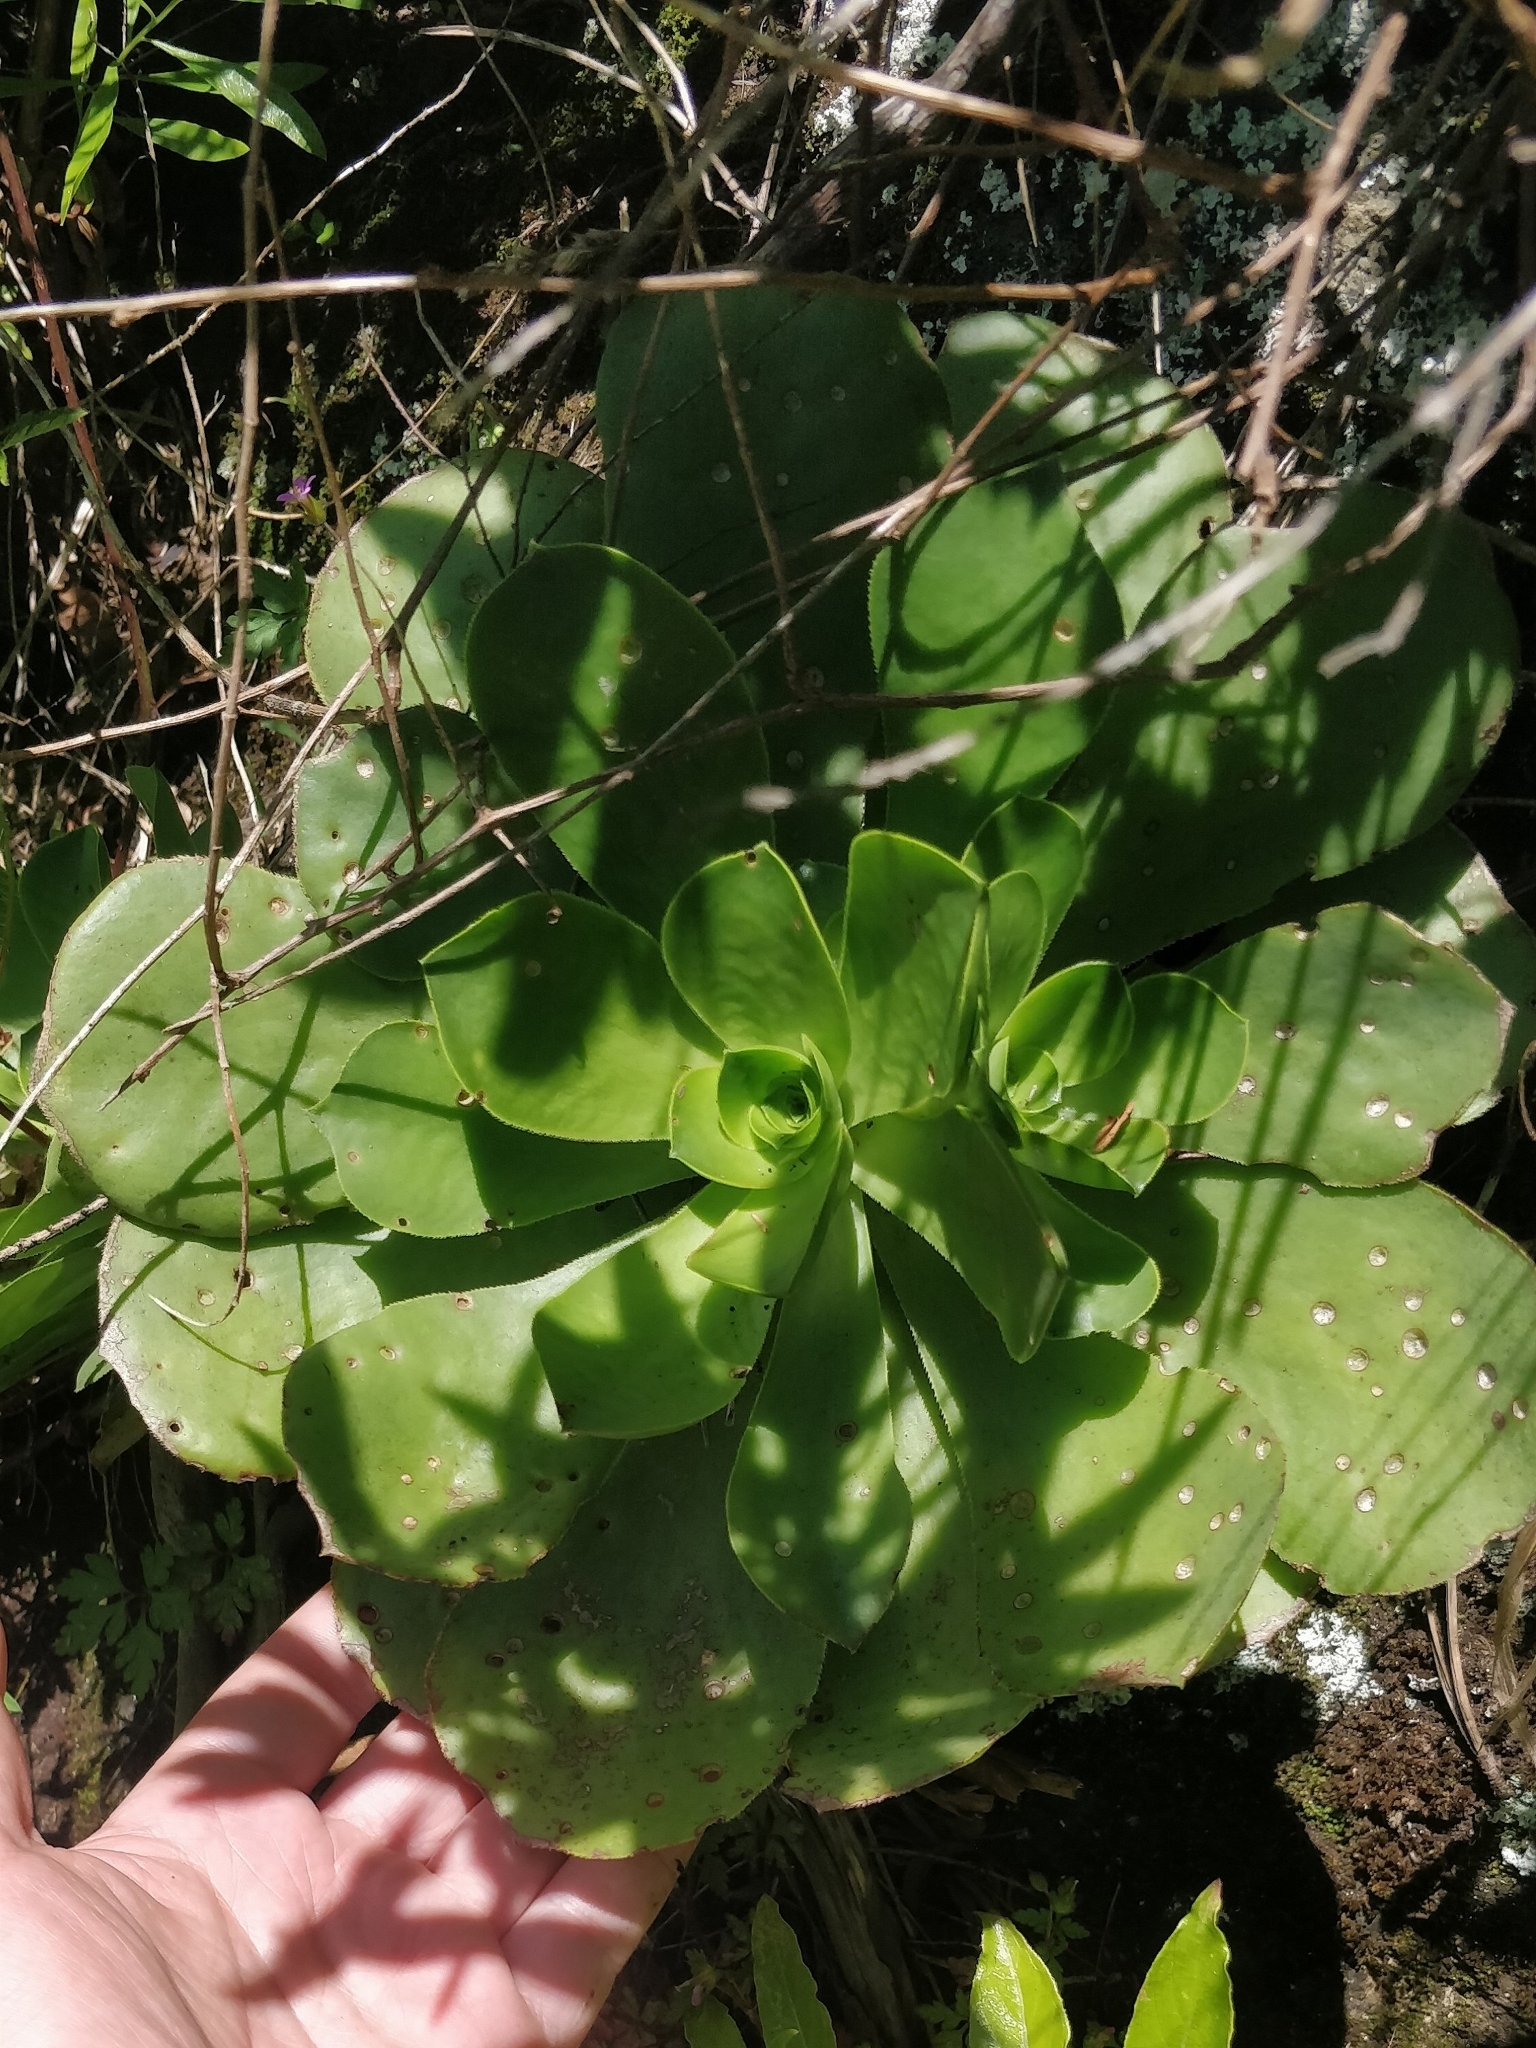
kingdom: Plantae
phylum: Tracheophyta
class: Magnoliopsida
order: Saxifragales
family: Crassulaceae
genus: Aeonium
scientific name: Aeonium glutinosum
